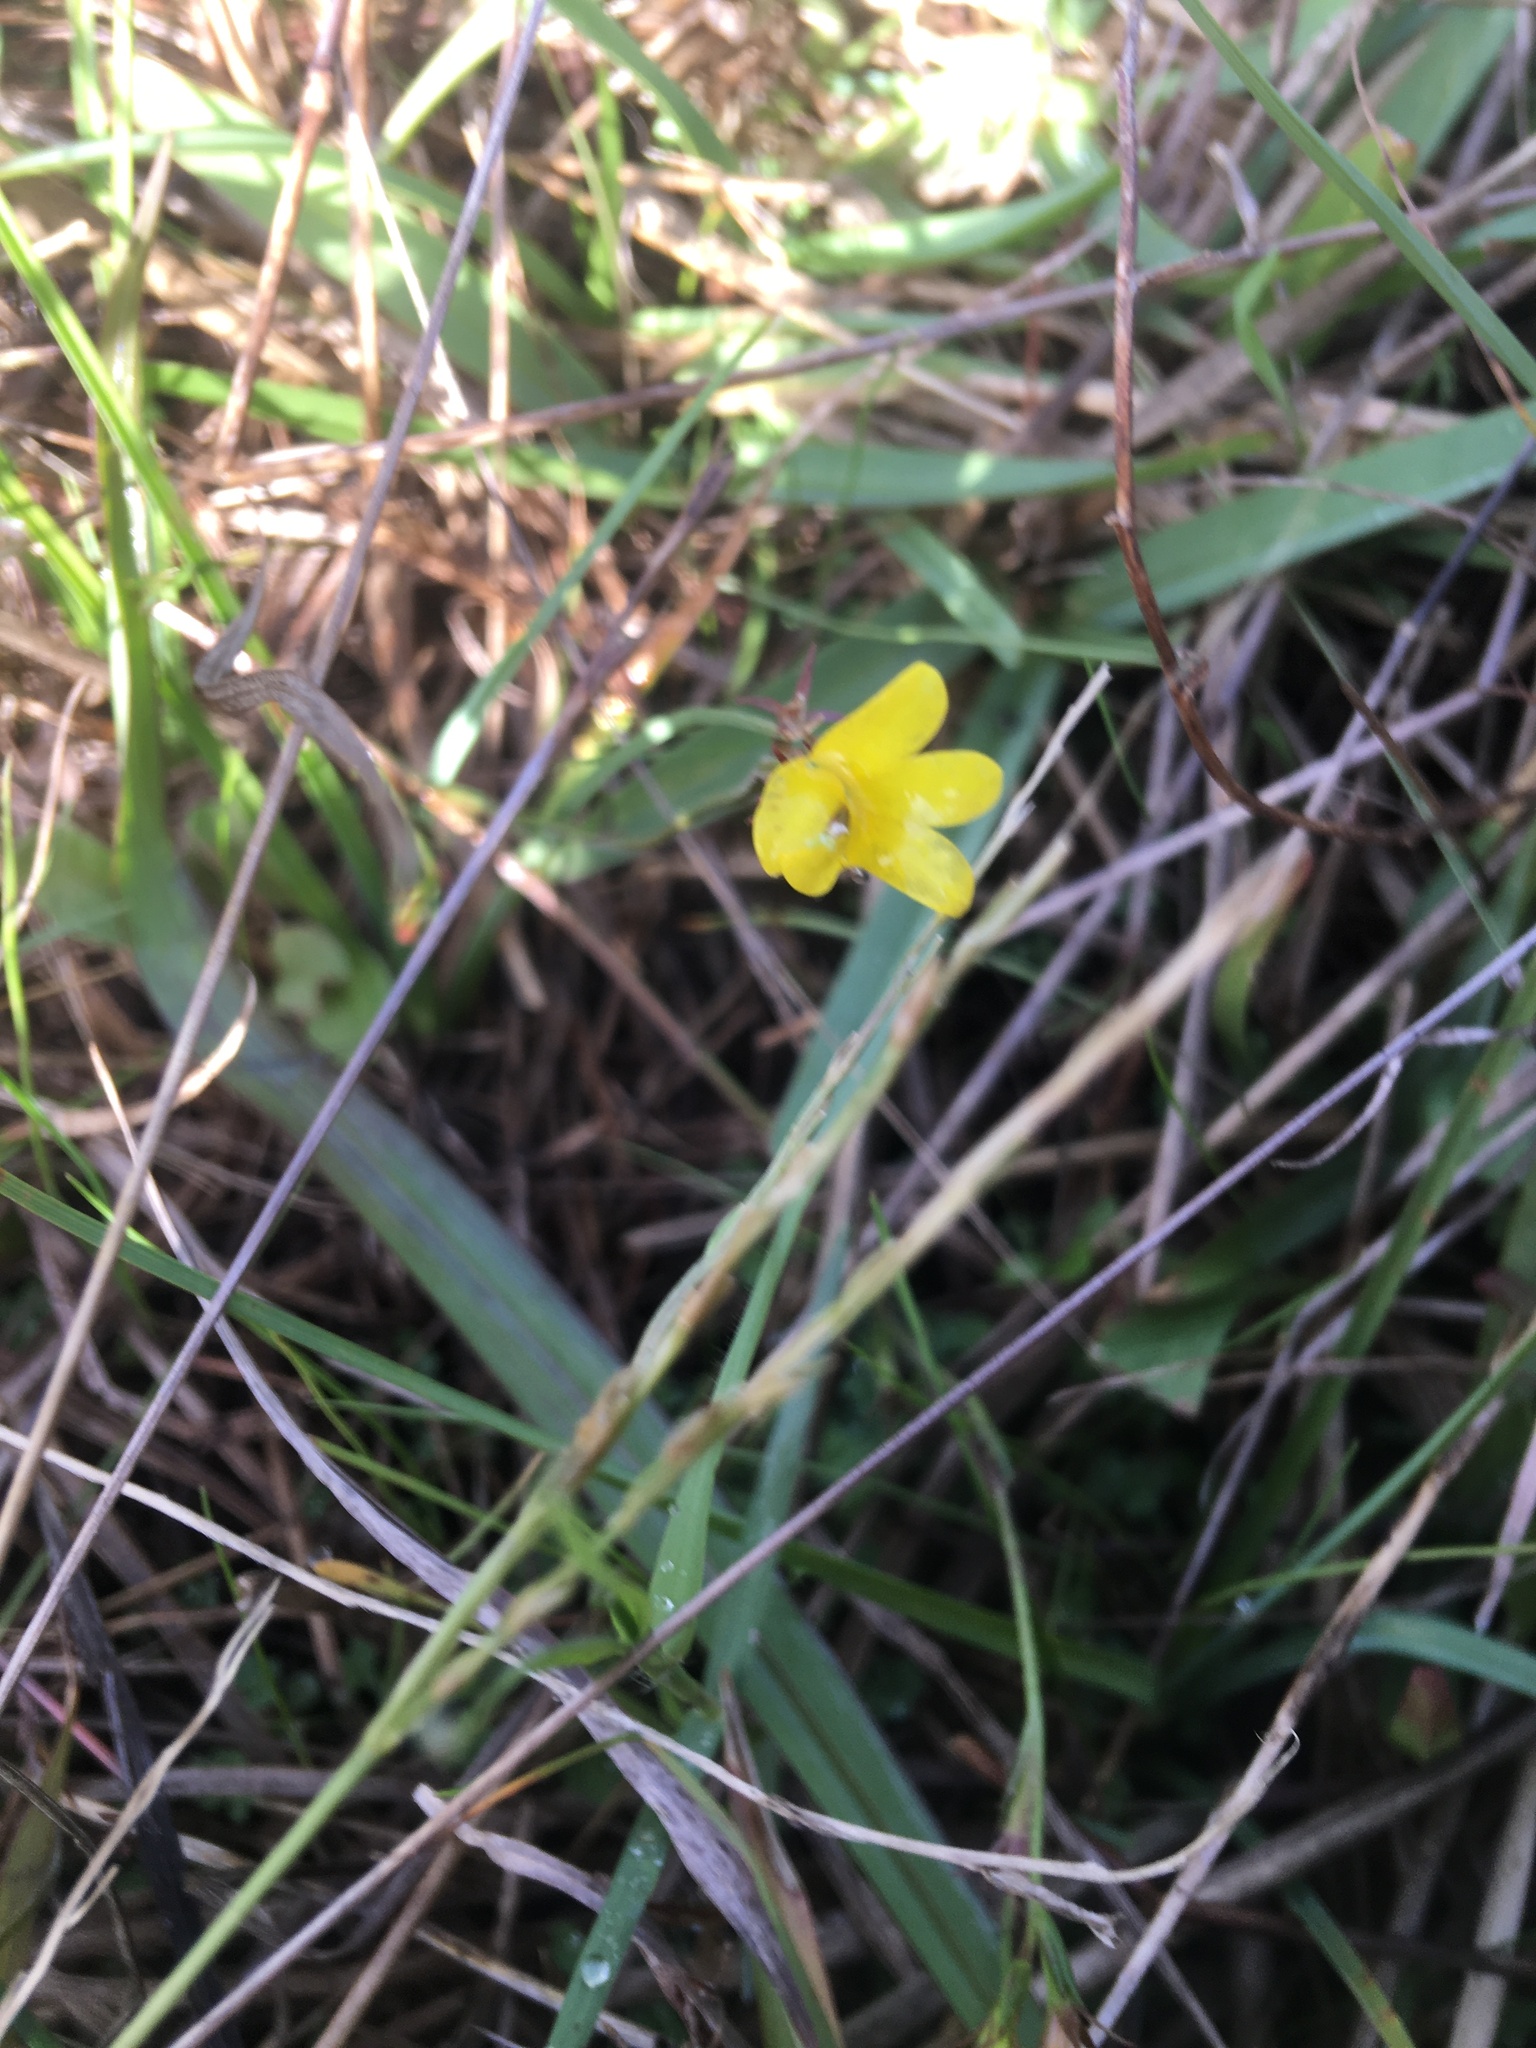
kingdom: Plantae
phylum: Tracheophyta
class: Magnoliopsida
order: Asterales
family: Campanulaceae
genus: Monopsis
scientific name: Monopsis lutea
